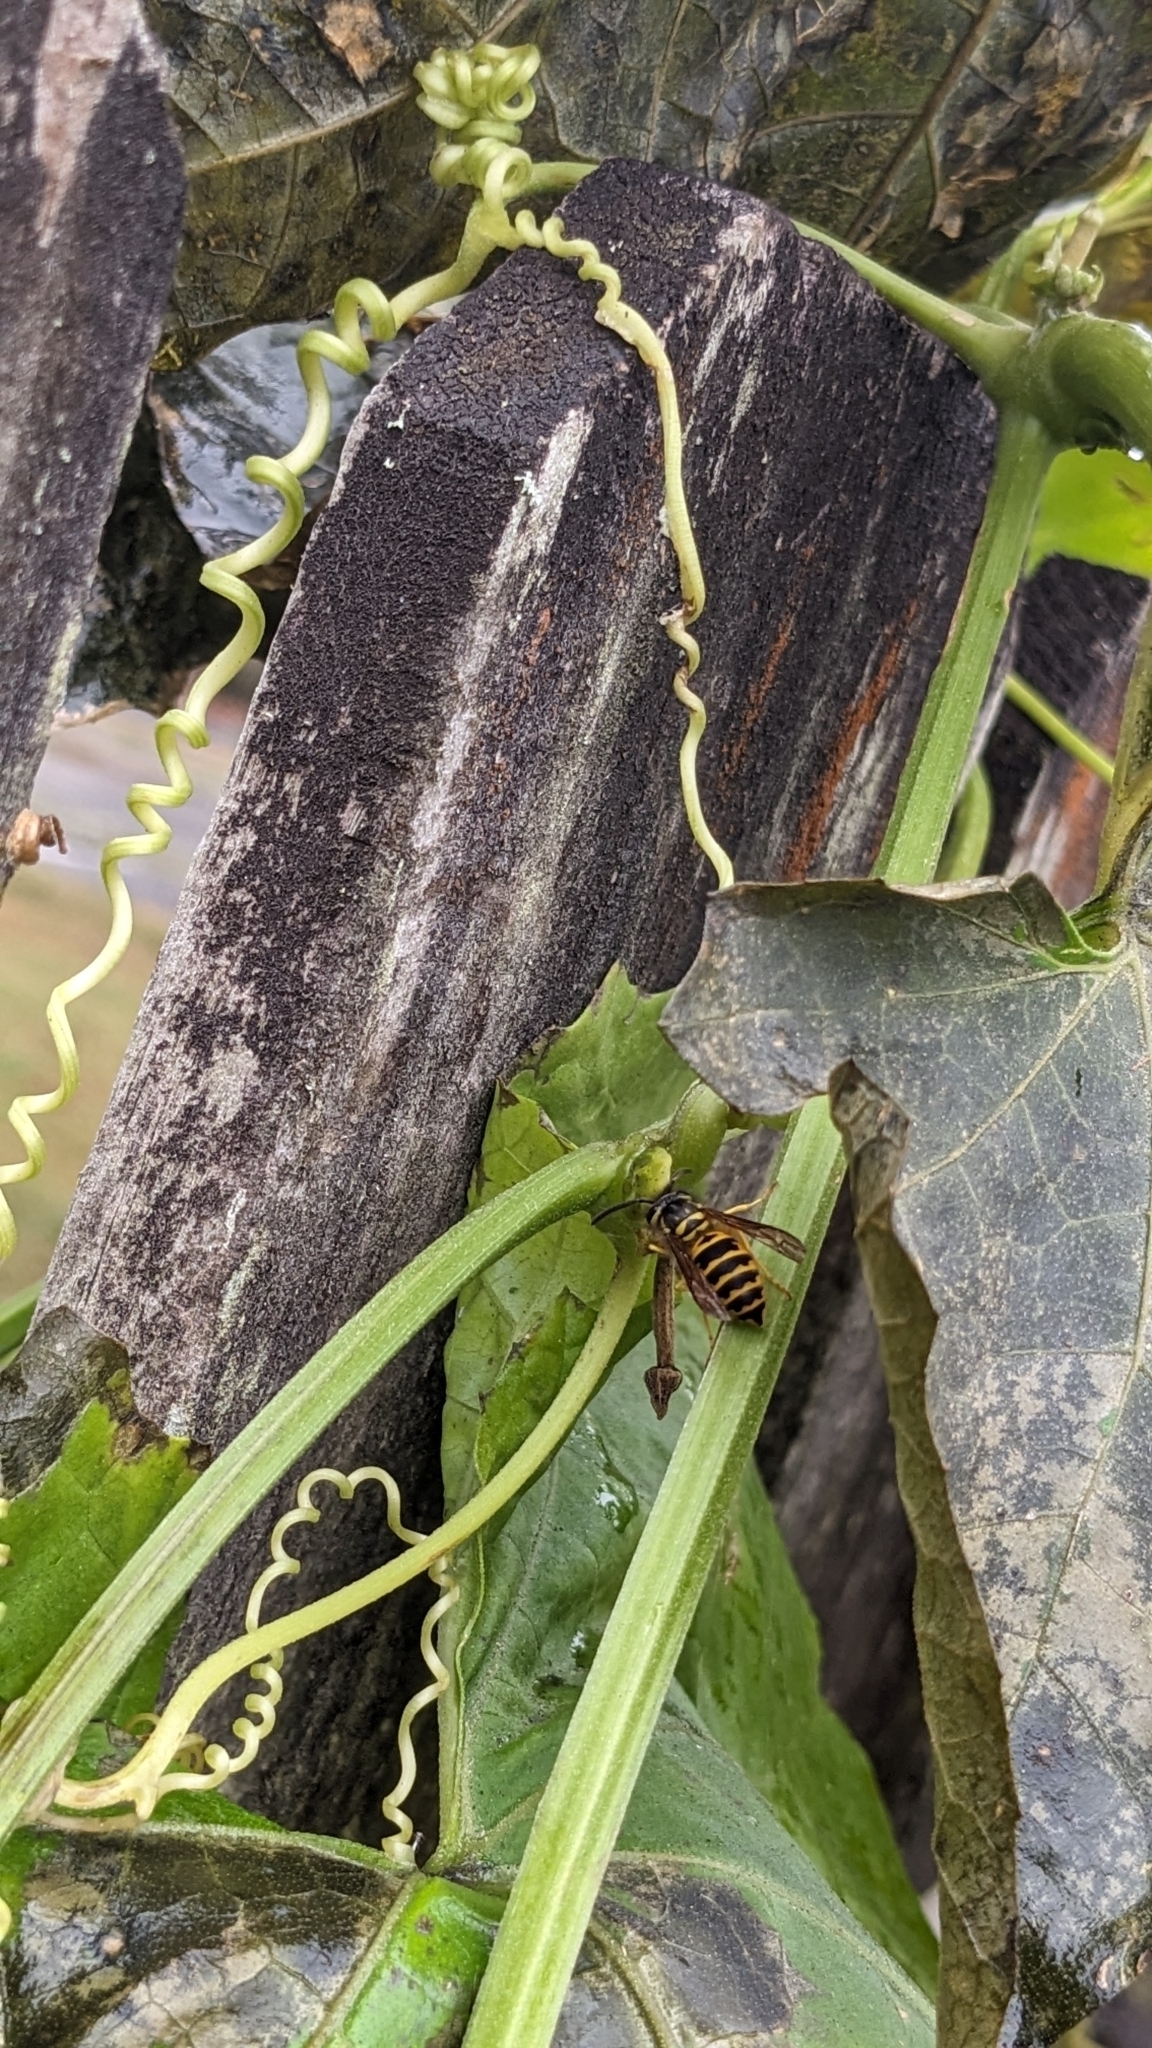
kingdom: Animalia
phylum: Arthropoda
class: Insecta
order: Hymenoptera
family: Vespidae
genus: Vespula
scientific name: Vespula maculifrons
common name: Eastern yellowjacket
